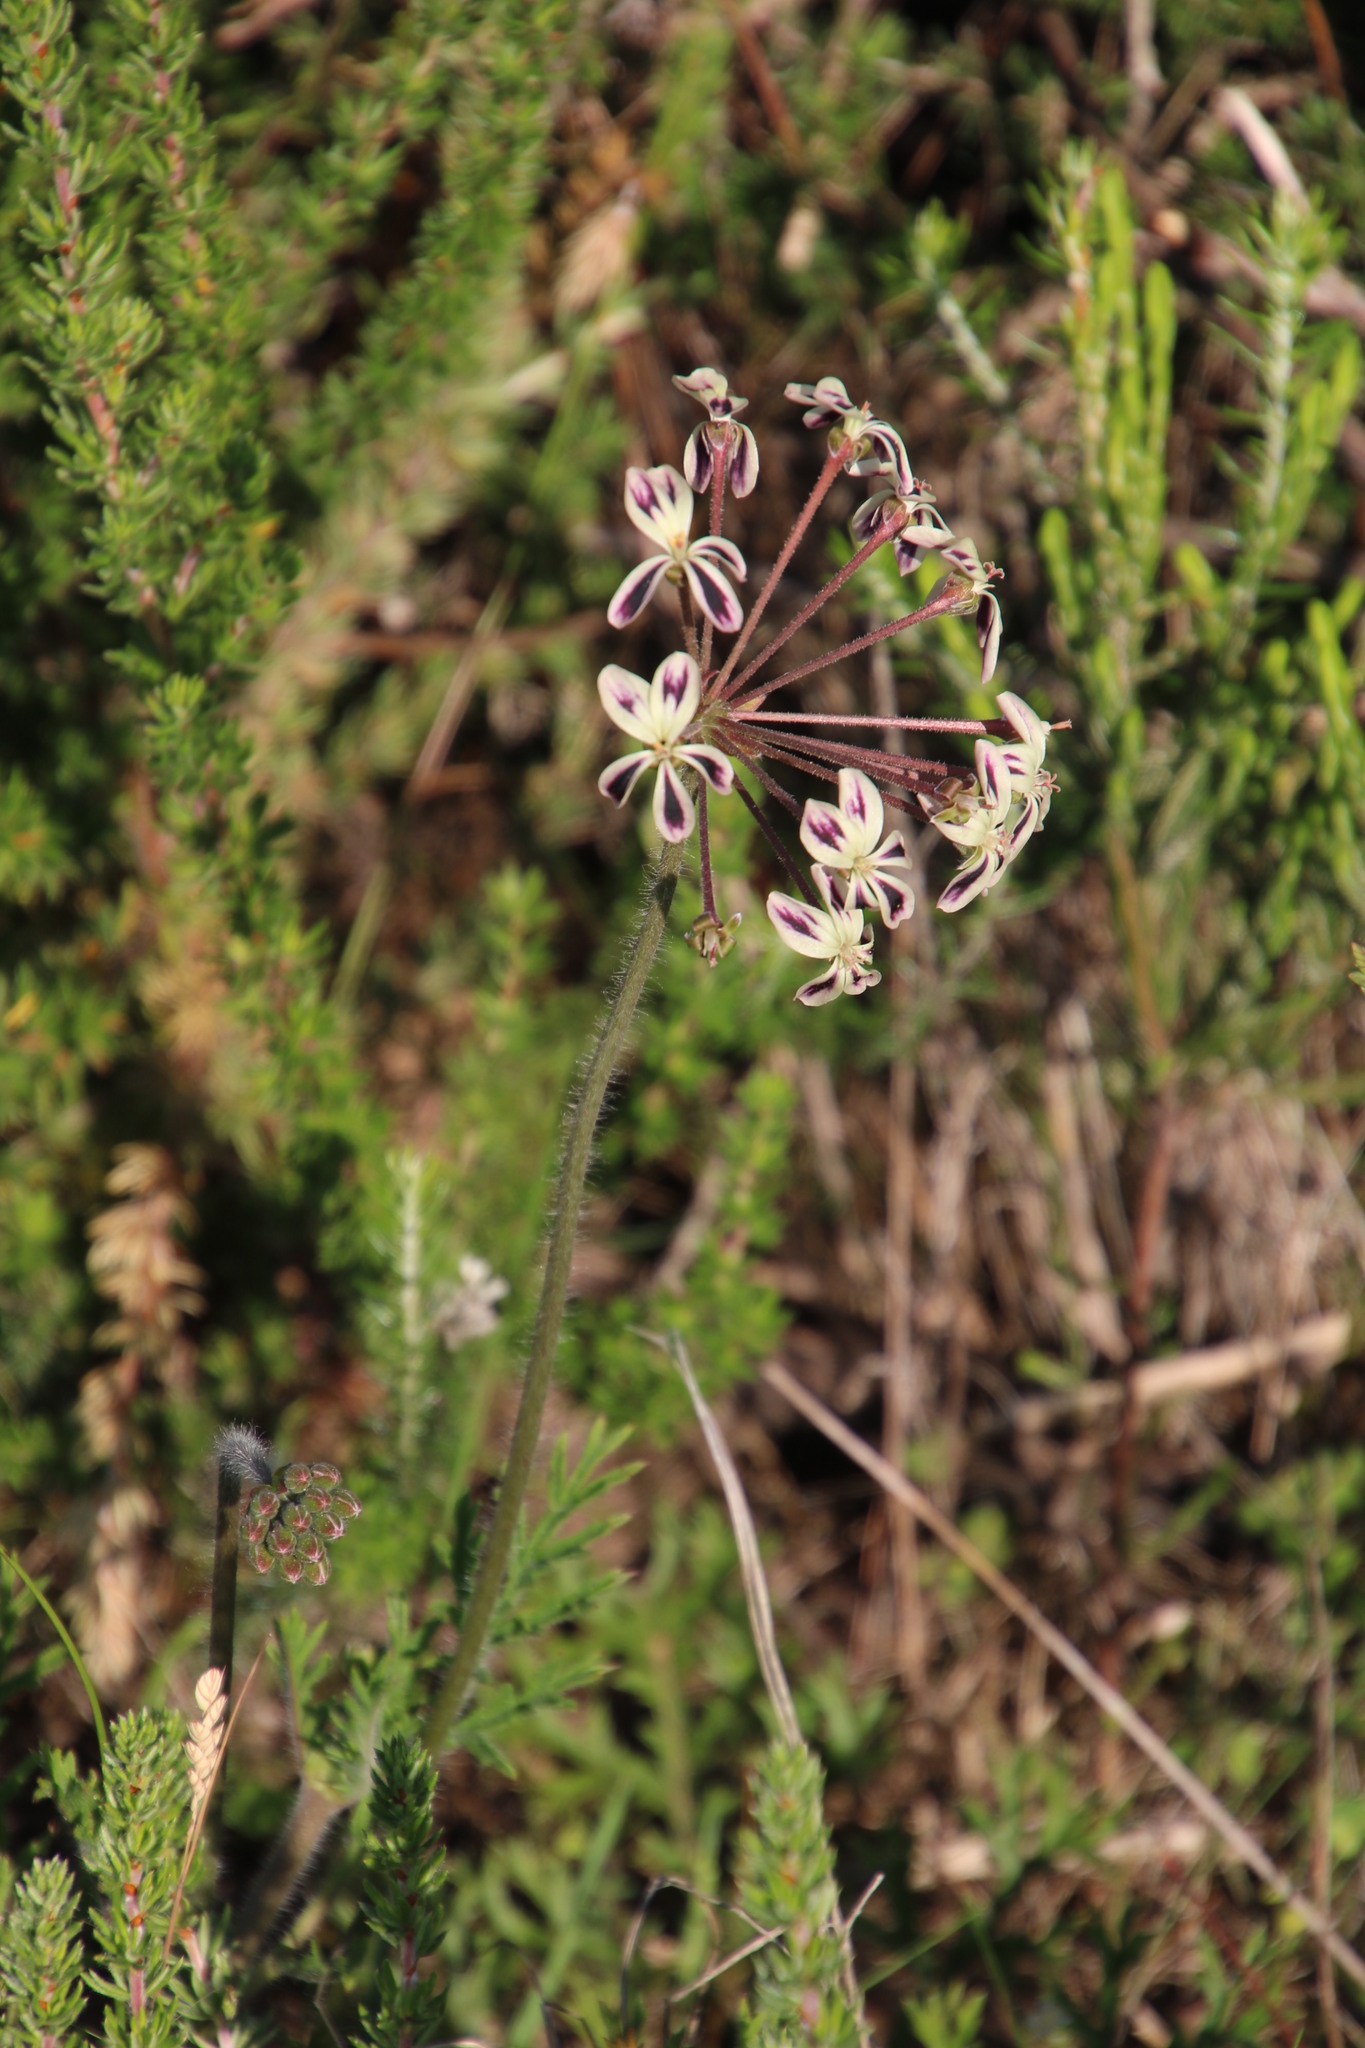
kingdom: Plantae
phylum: Tracheophyta
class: Magnoliopsida
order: Geraniales
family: Geraniaceae
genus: Pelargonium
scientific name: Pelargonium triste
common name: Night-scent pelargonium
